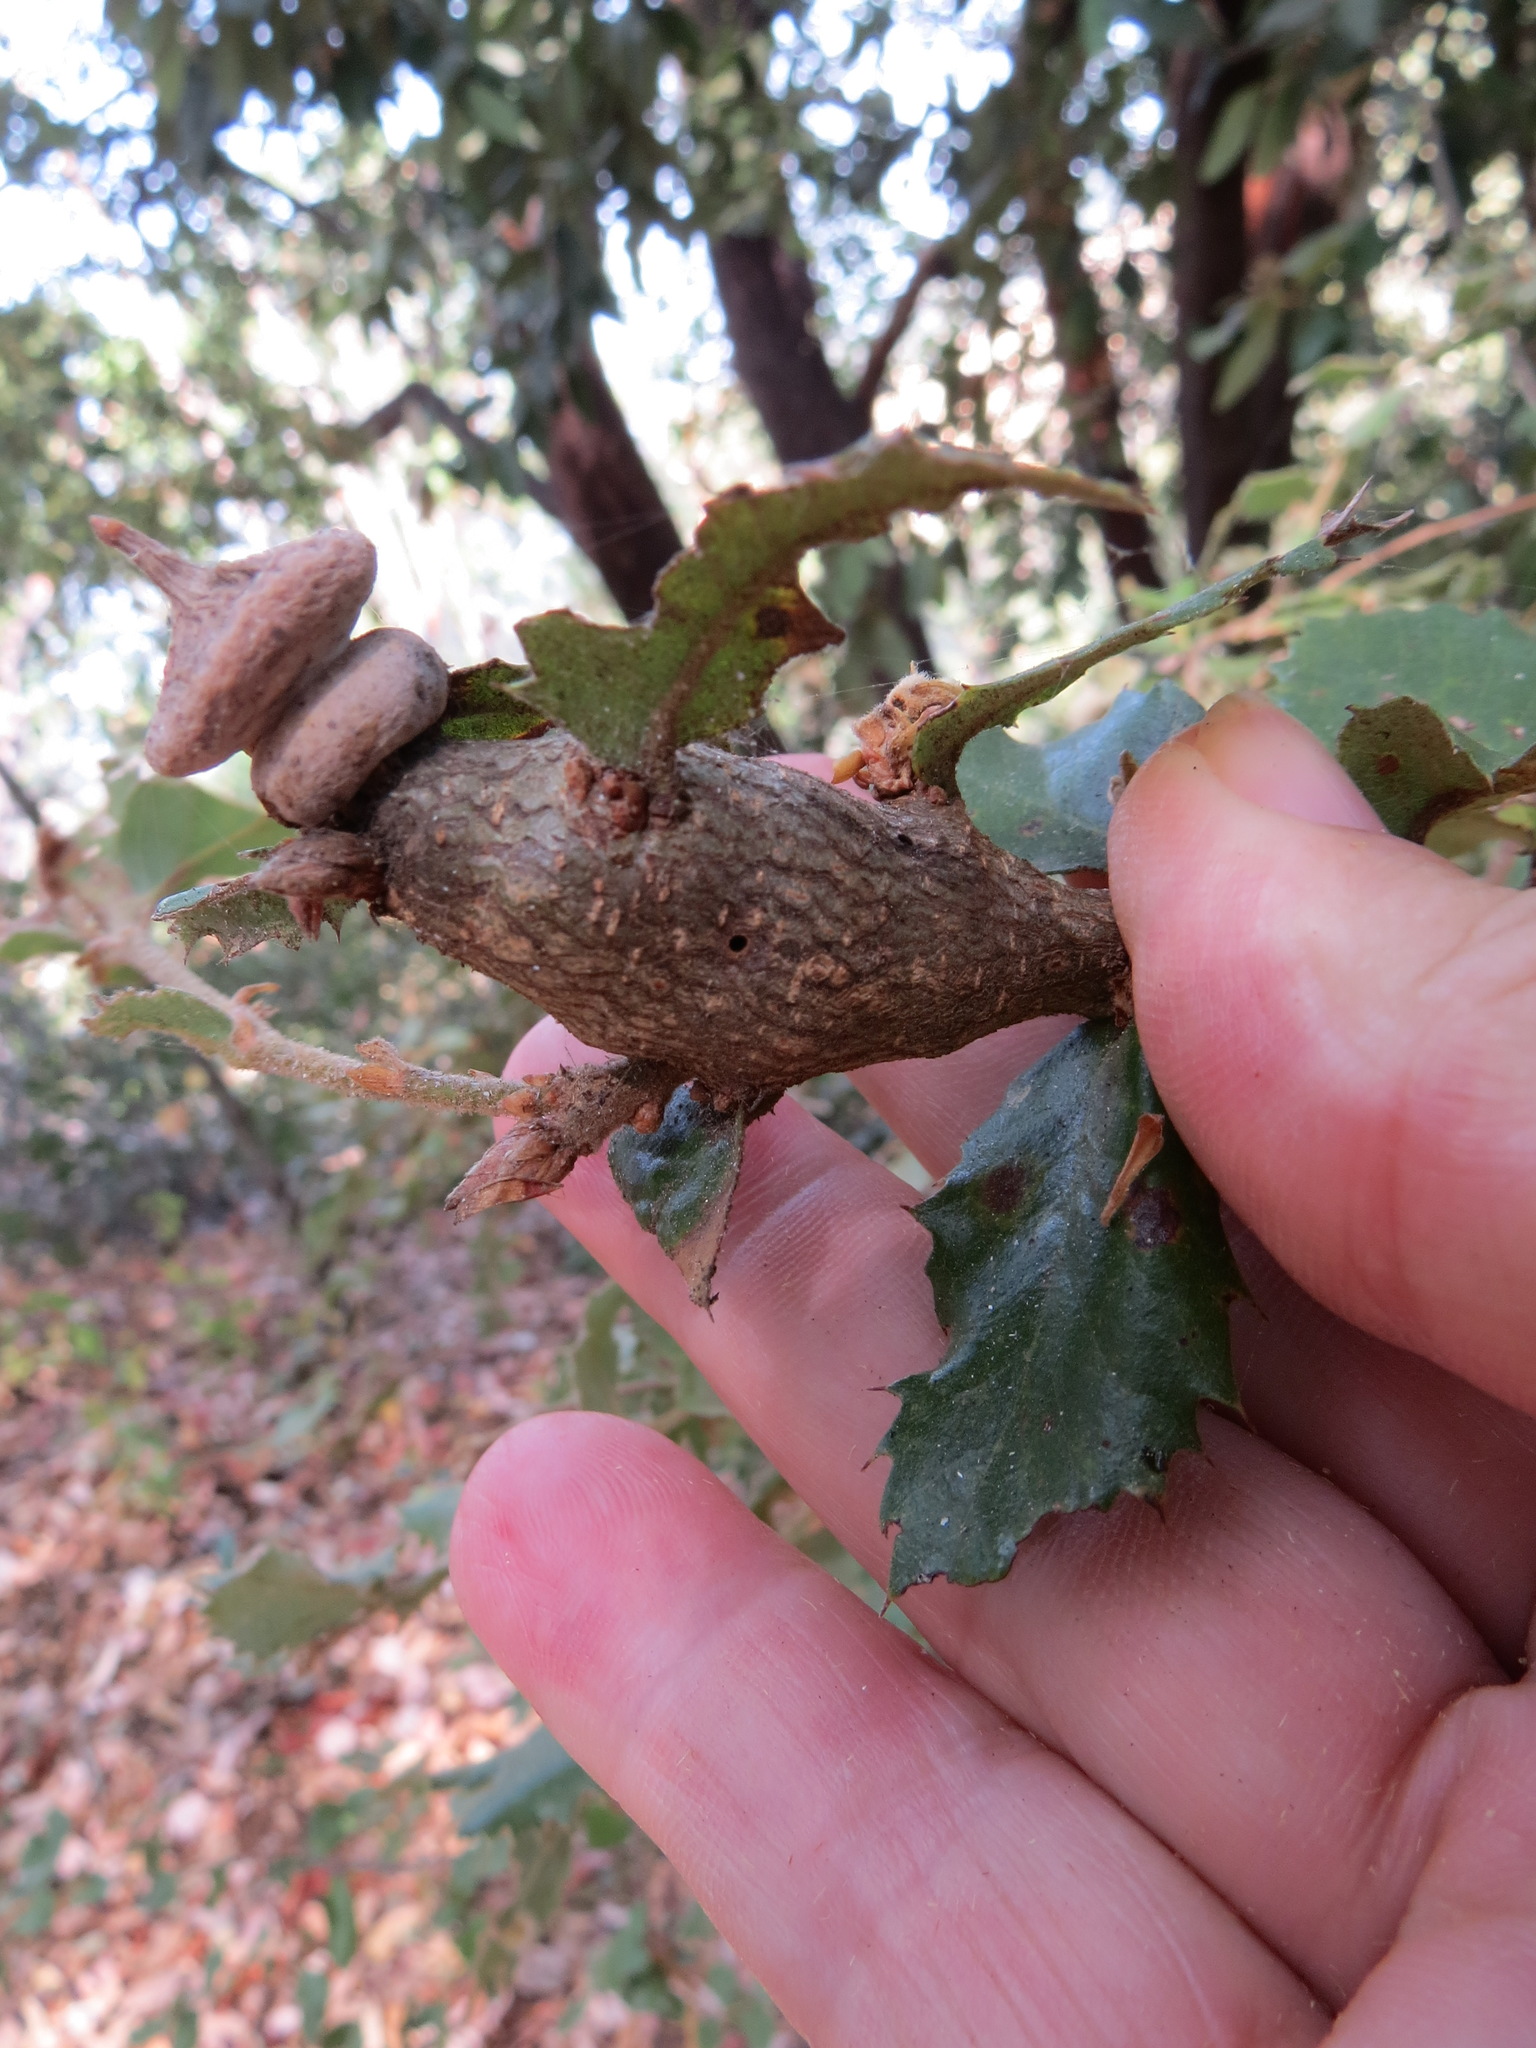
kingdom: Animalia
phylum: Arthropoda
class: Insecta
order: Hymenoptera
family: Cynipidae
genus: Heteroecus
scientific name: Heteroecus
